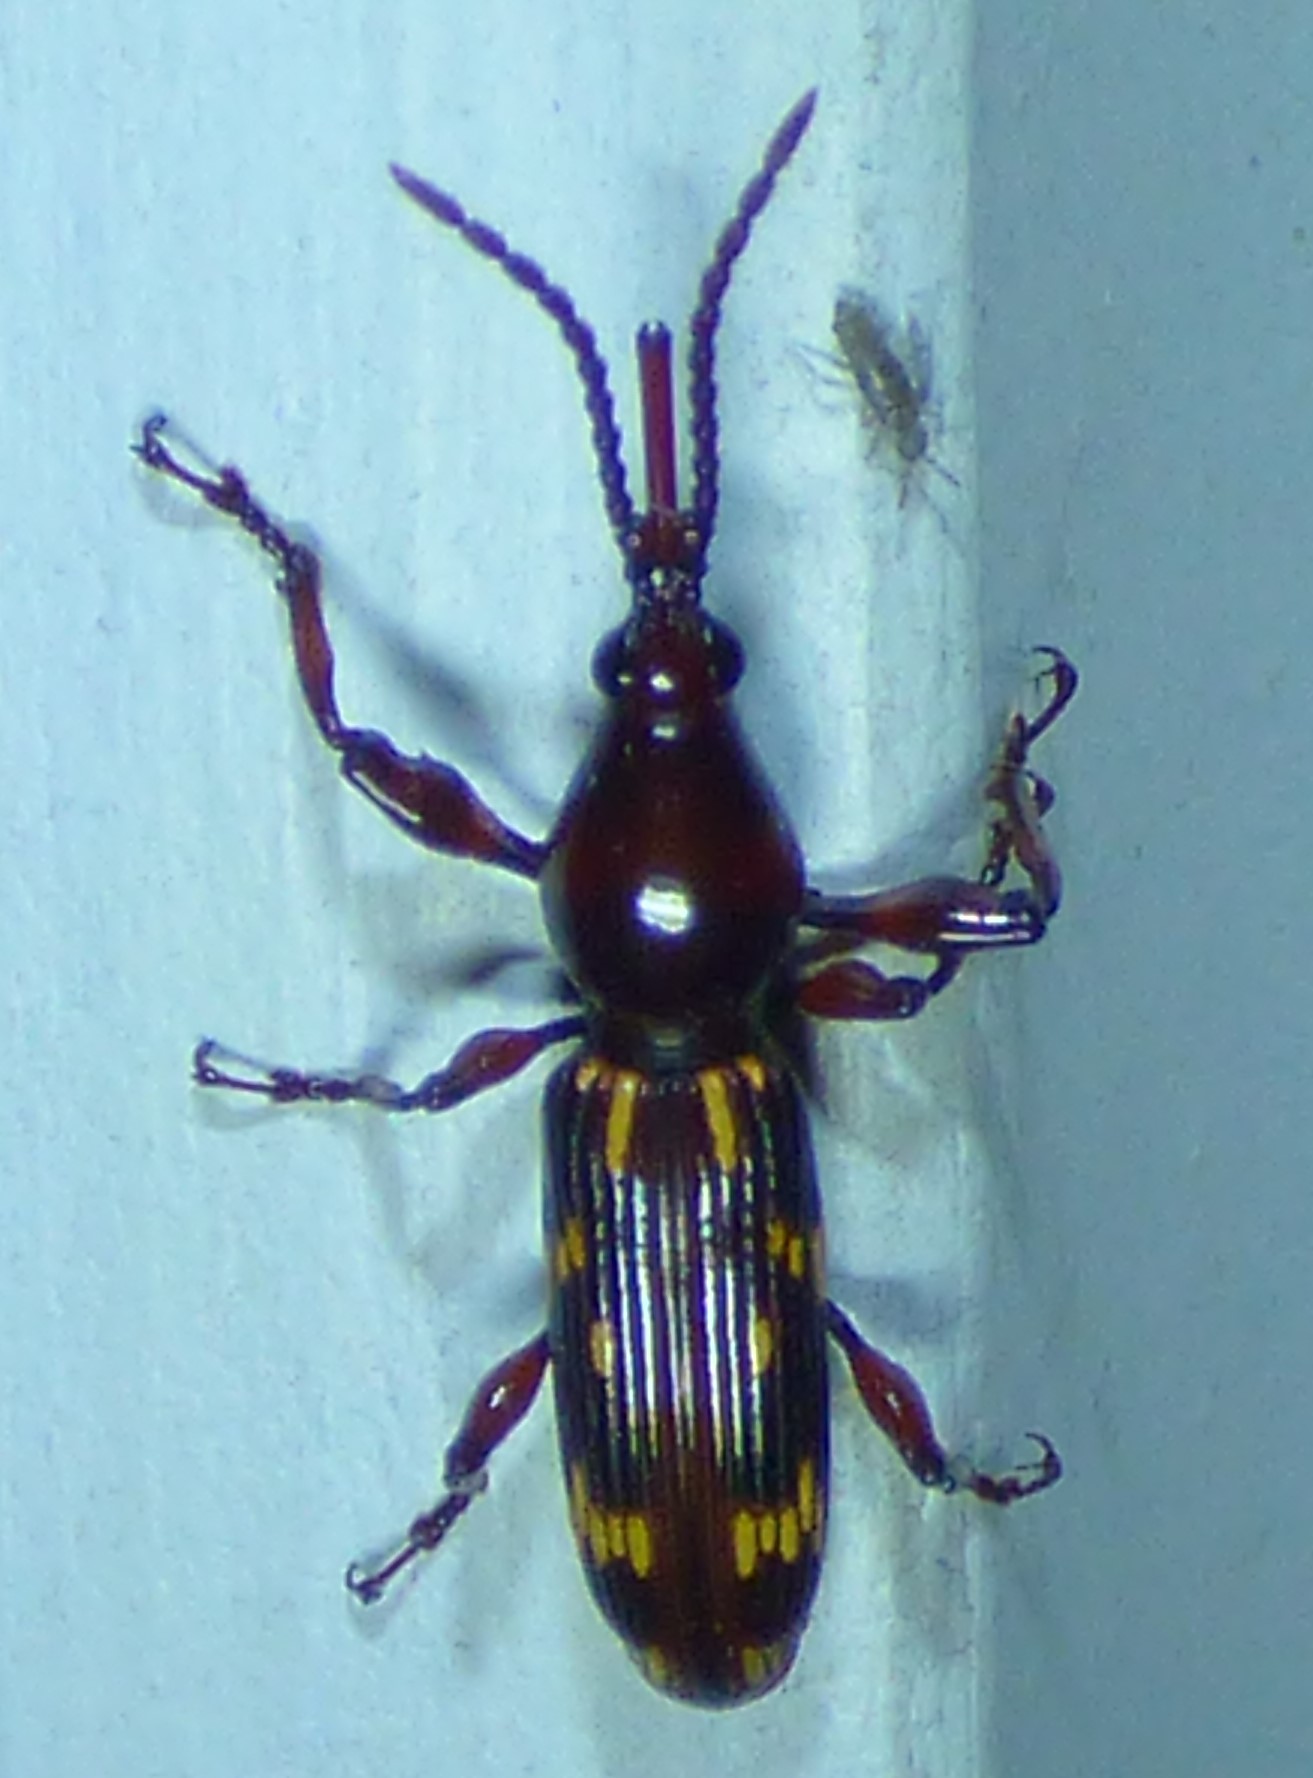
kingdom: Animalia
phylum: Arthropoda
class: Insecta
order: Coleoptera
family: Brentidae
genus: Arrenodes
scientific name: Arrenodes minutus
